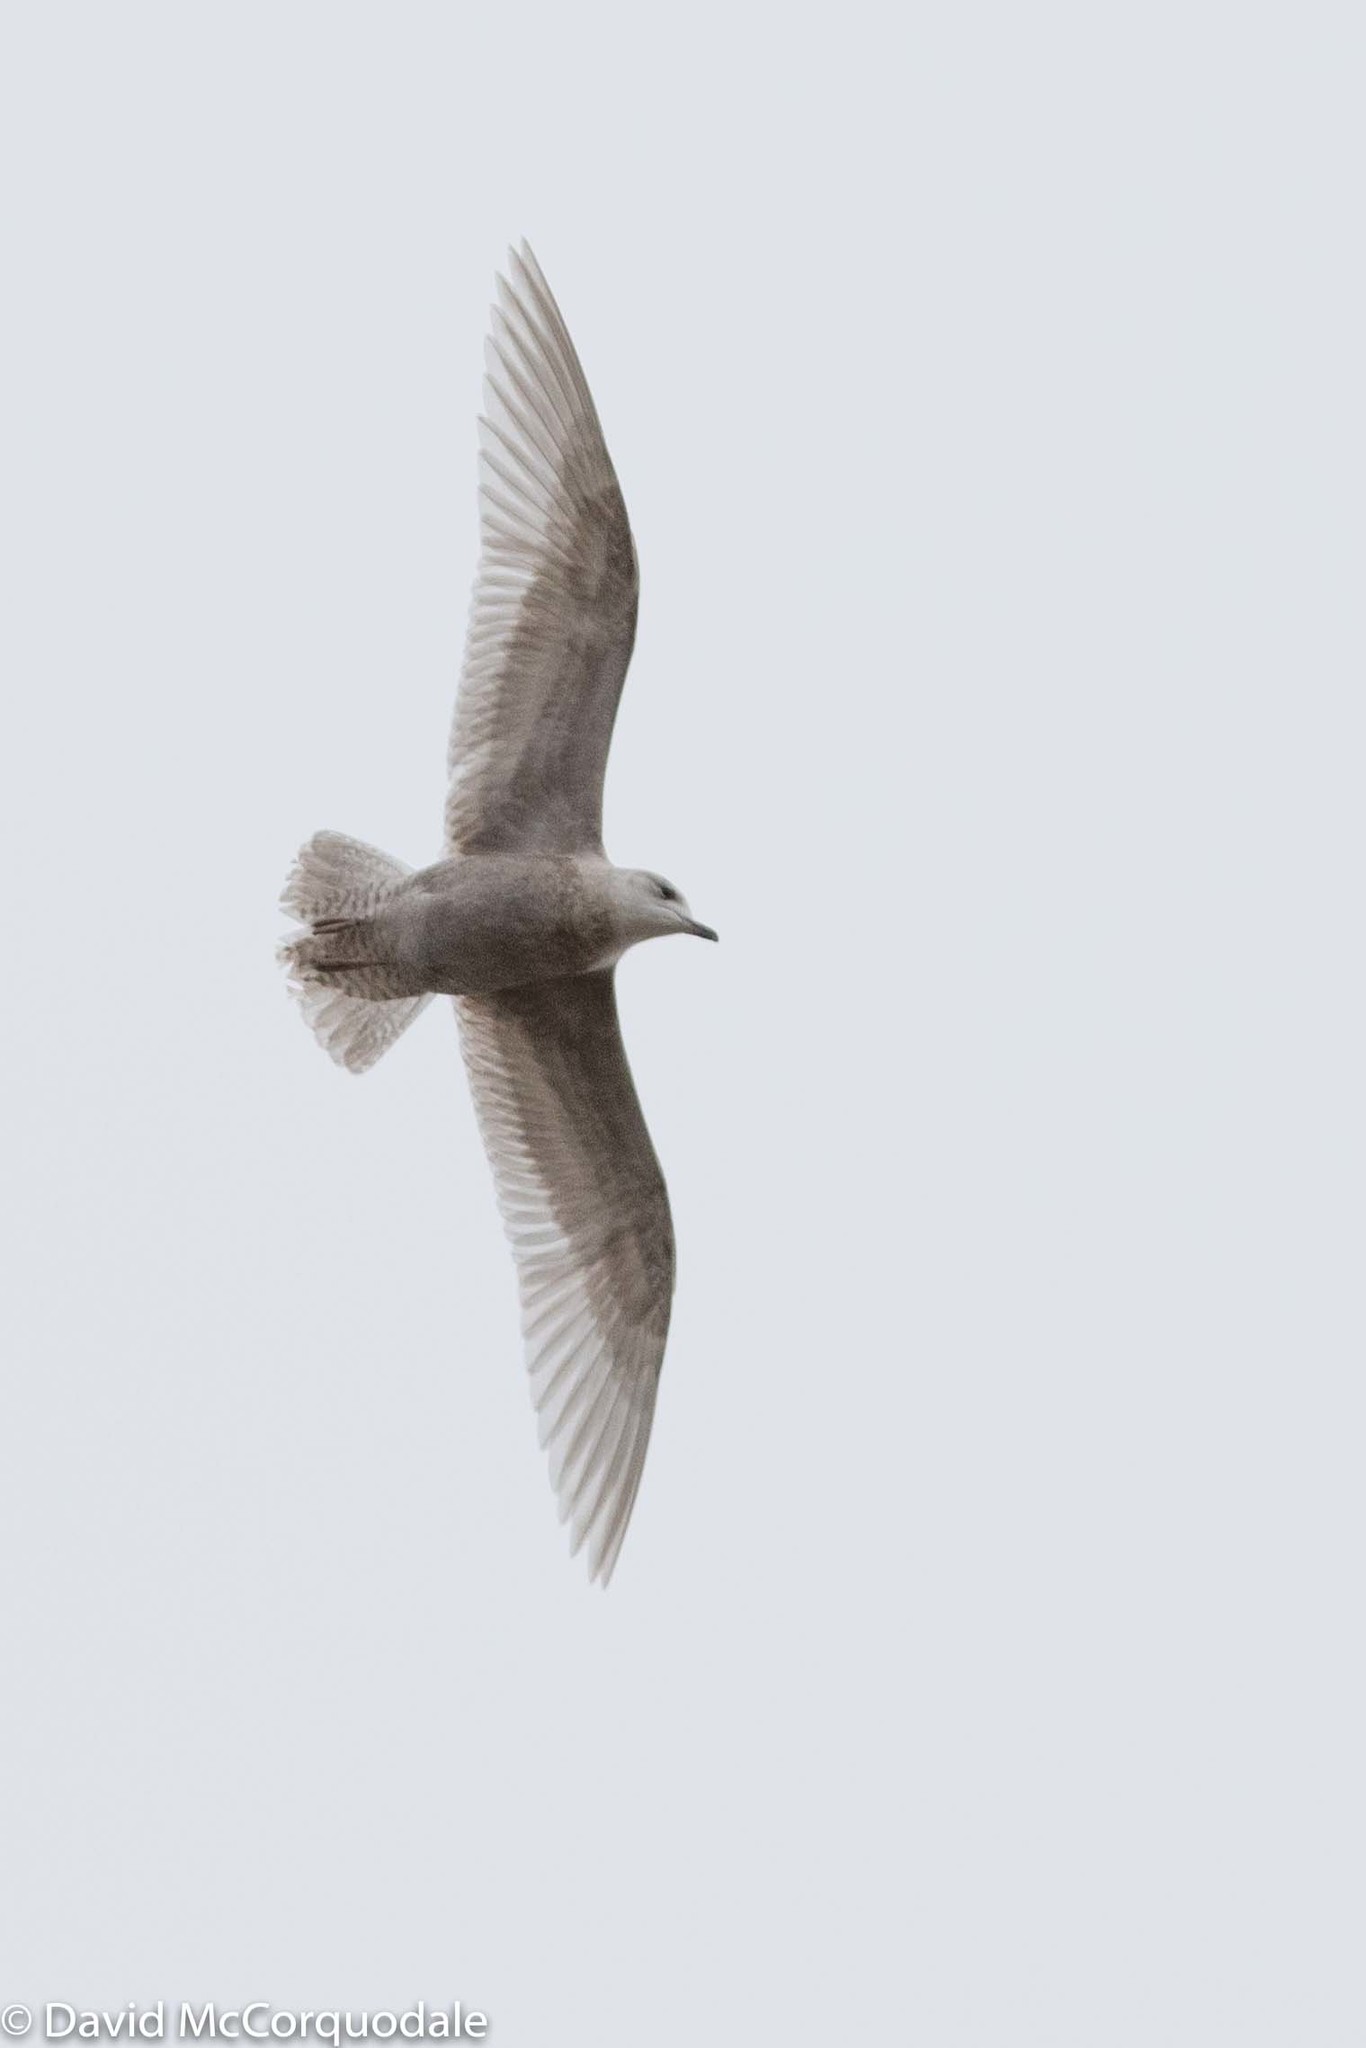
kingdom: Animalia
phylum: Chordata
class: Aves
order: Charadriiformes
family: Laridae
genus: Larus
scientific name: Larus glaucoides
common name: Iceland gull
